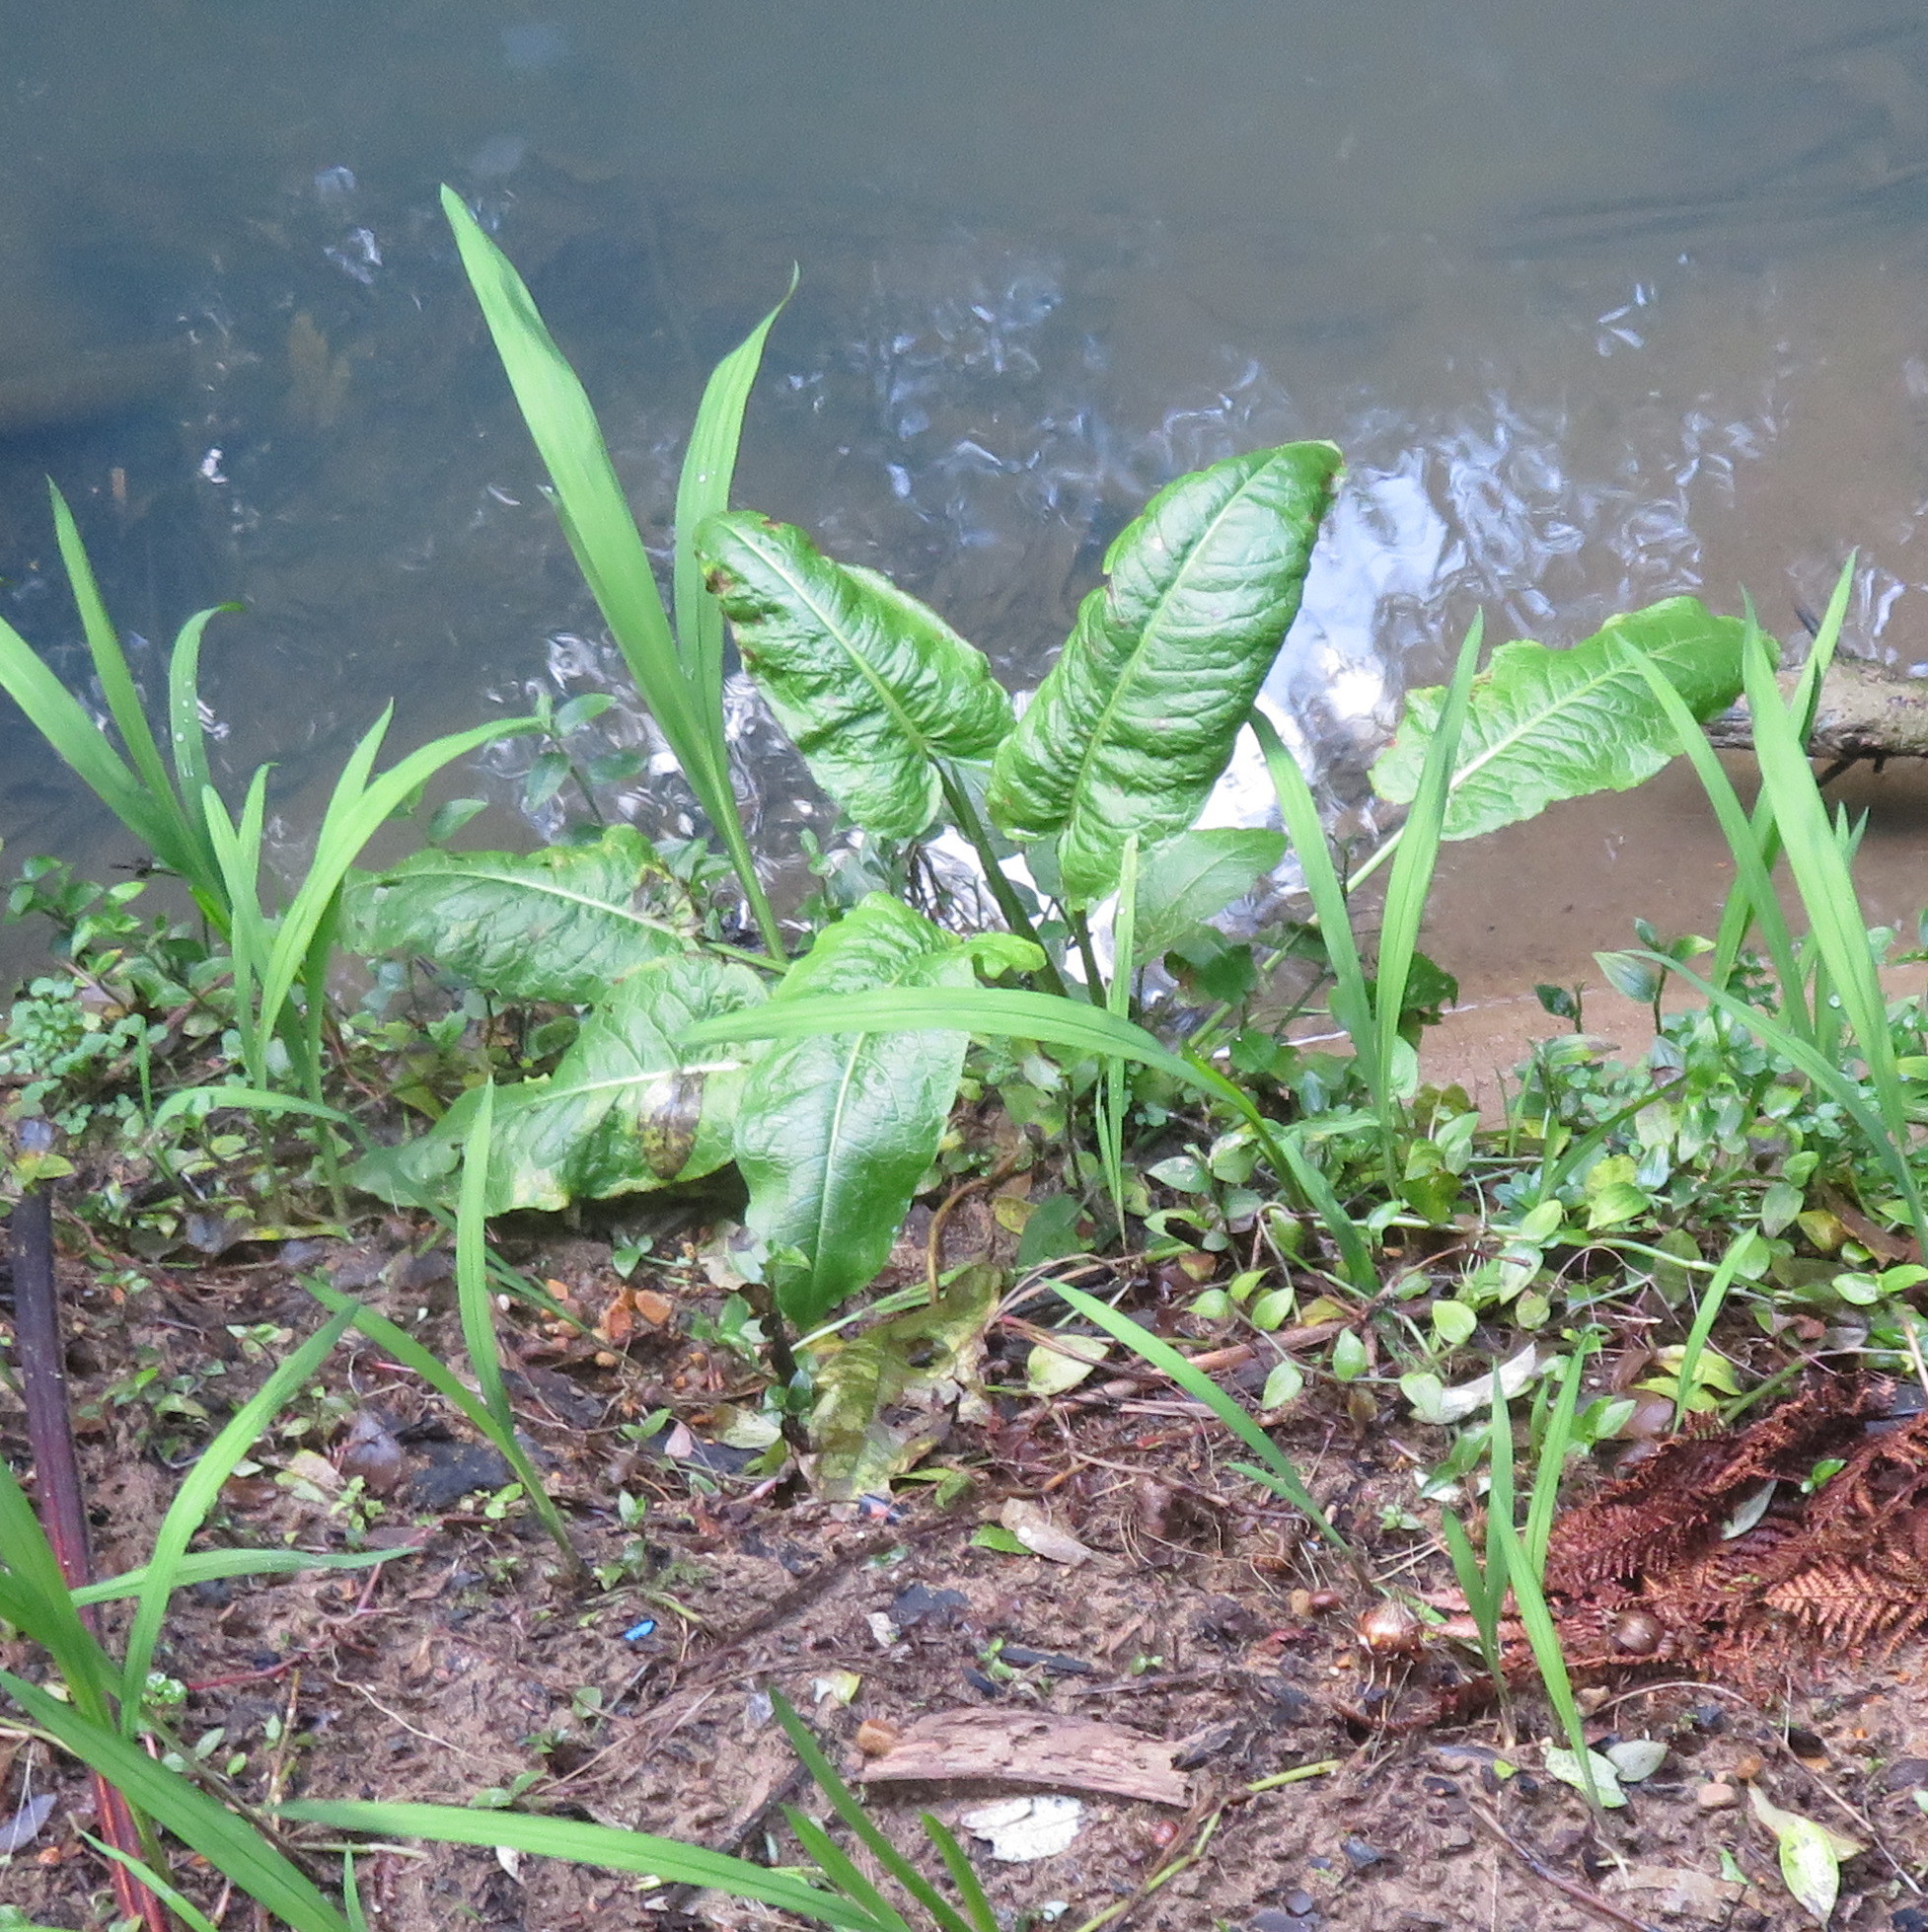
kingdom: Plantae
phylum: Tracheophyta
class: Magnoliopsida
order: Caryophyllales
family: Polygonaceae
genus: Rumex
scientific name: Rumex obtusifolius
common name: Bitter dock
